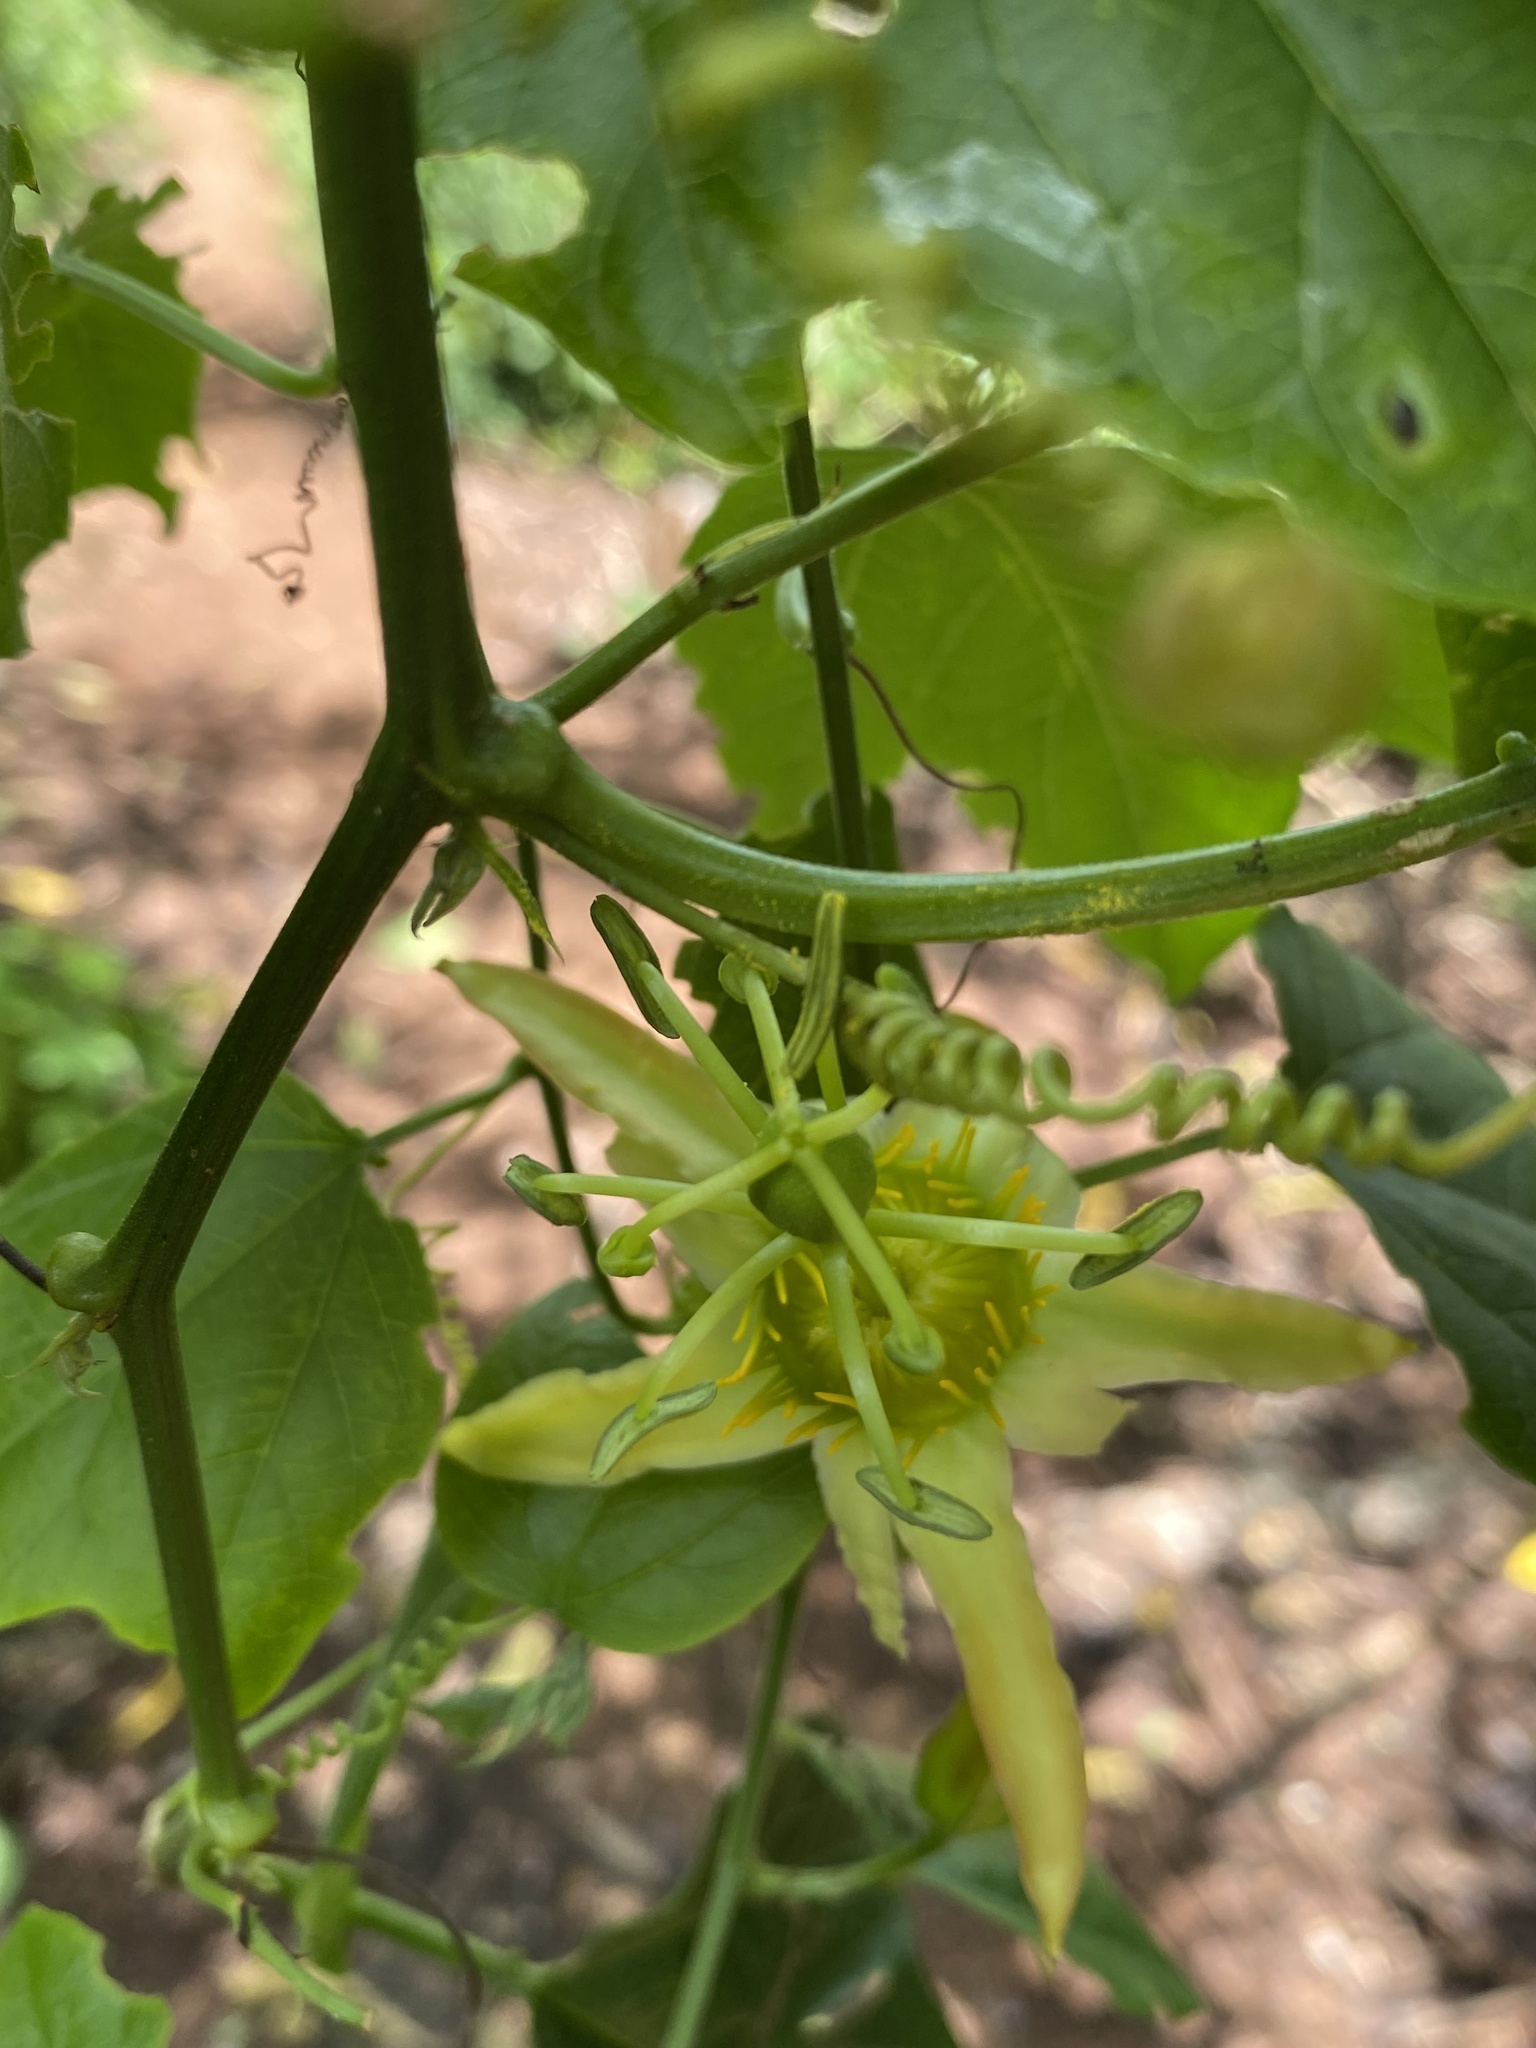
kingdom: Plantae
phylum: Tracheophyta
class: Magnoliopsida
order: Malpighiales
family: Passifloraceae
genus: Passiflora
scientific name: Passiflora herbertiana
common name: Yellow passionflower
